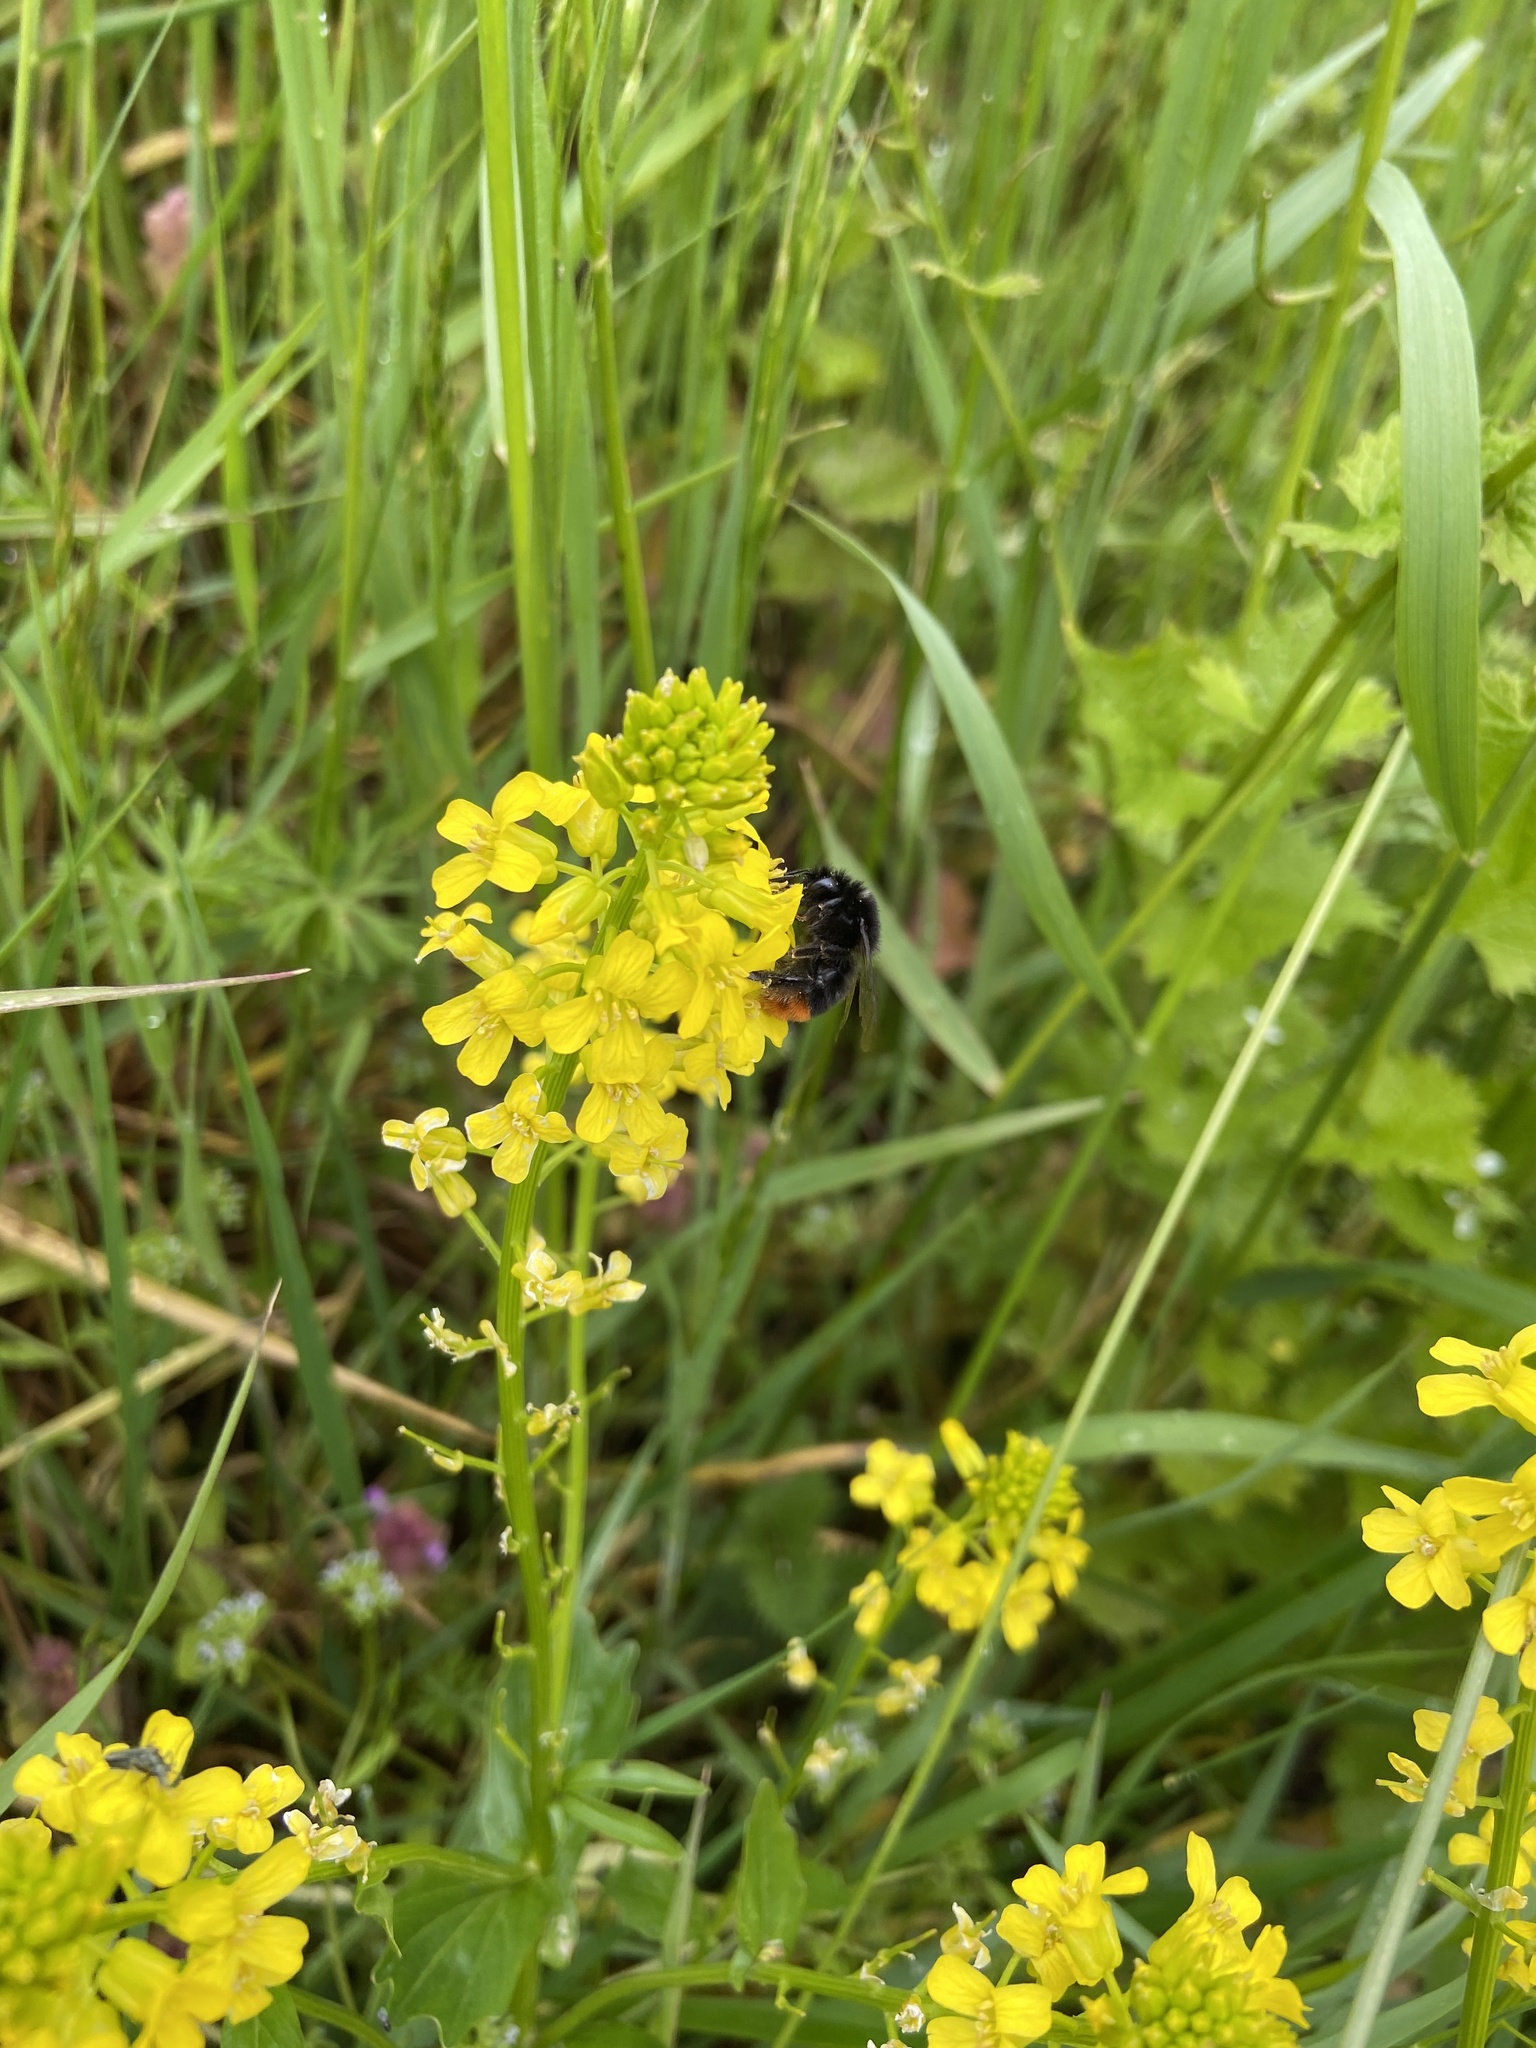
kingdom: Animalia
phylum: Arthropoda
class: Insecta
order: Hymenoptera
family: Apidae
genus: Bombus
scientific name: Bombus lapidarius
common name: Large red-tailed humble-bee
